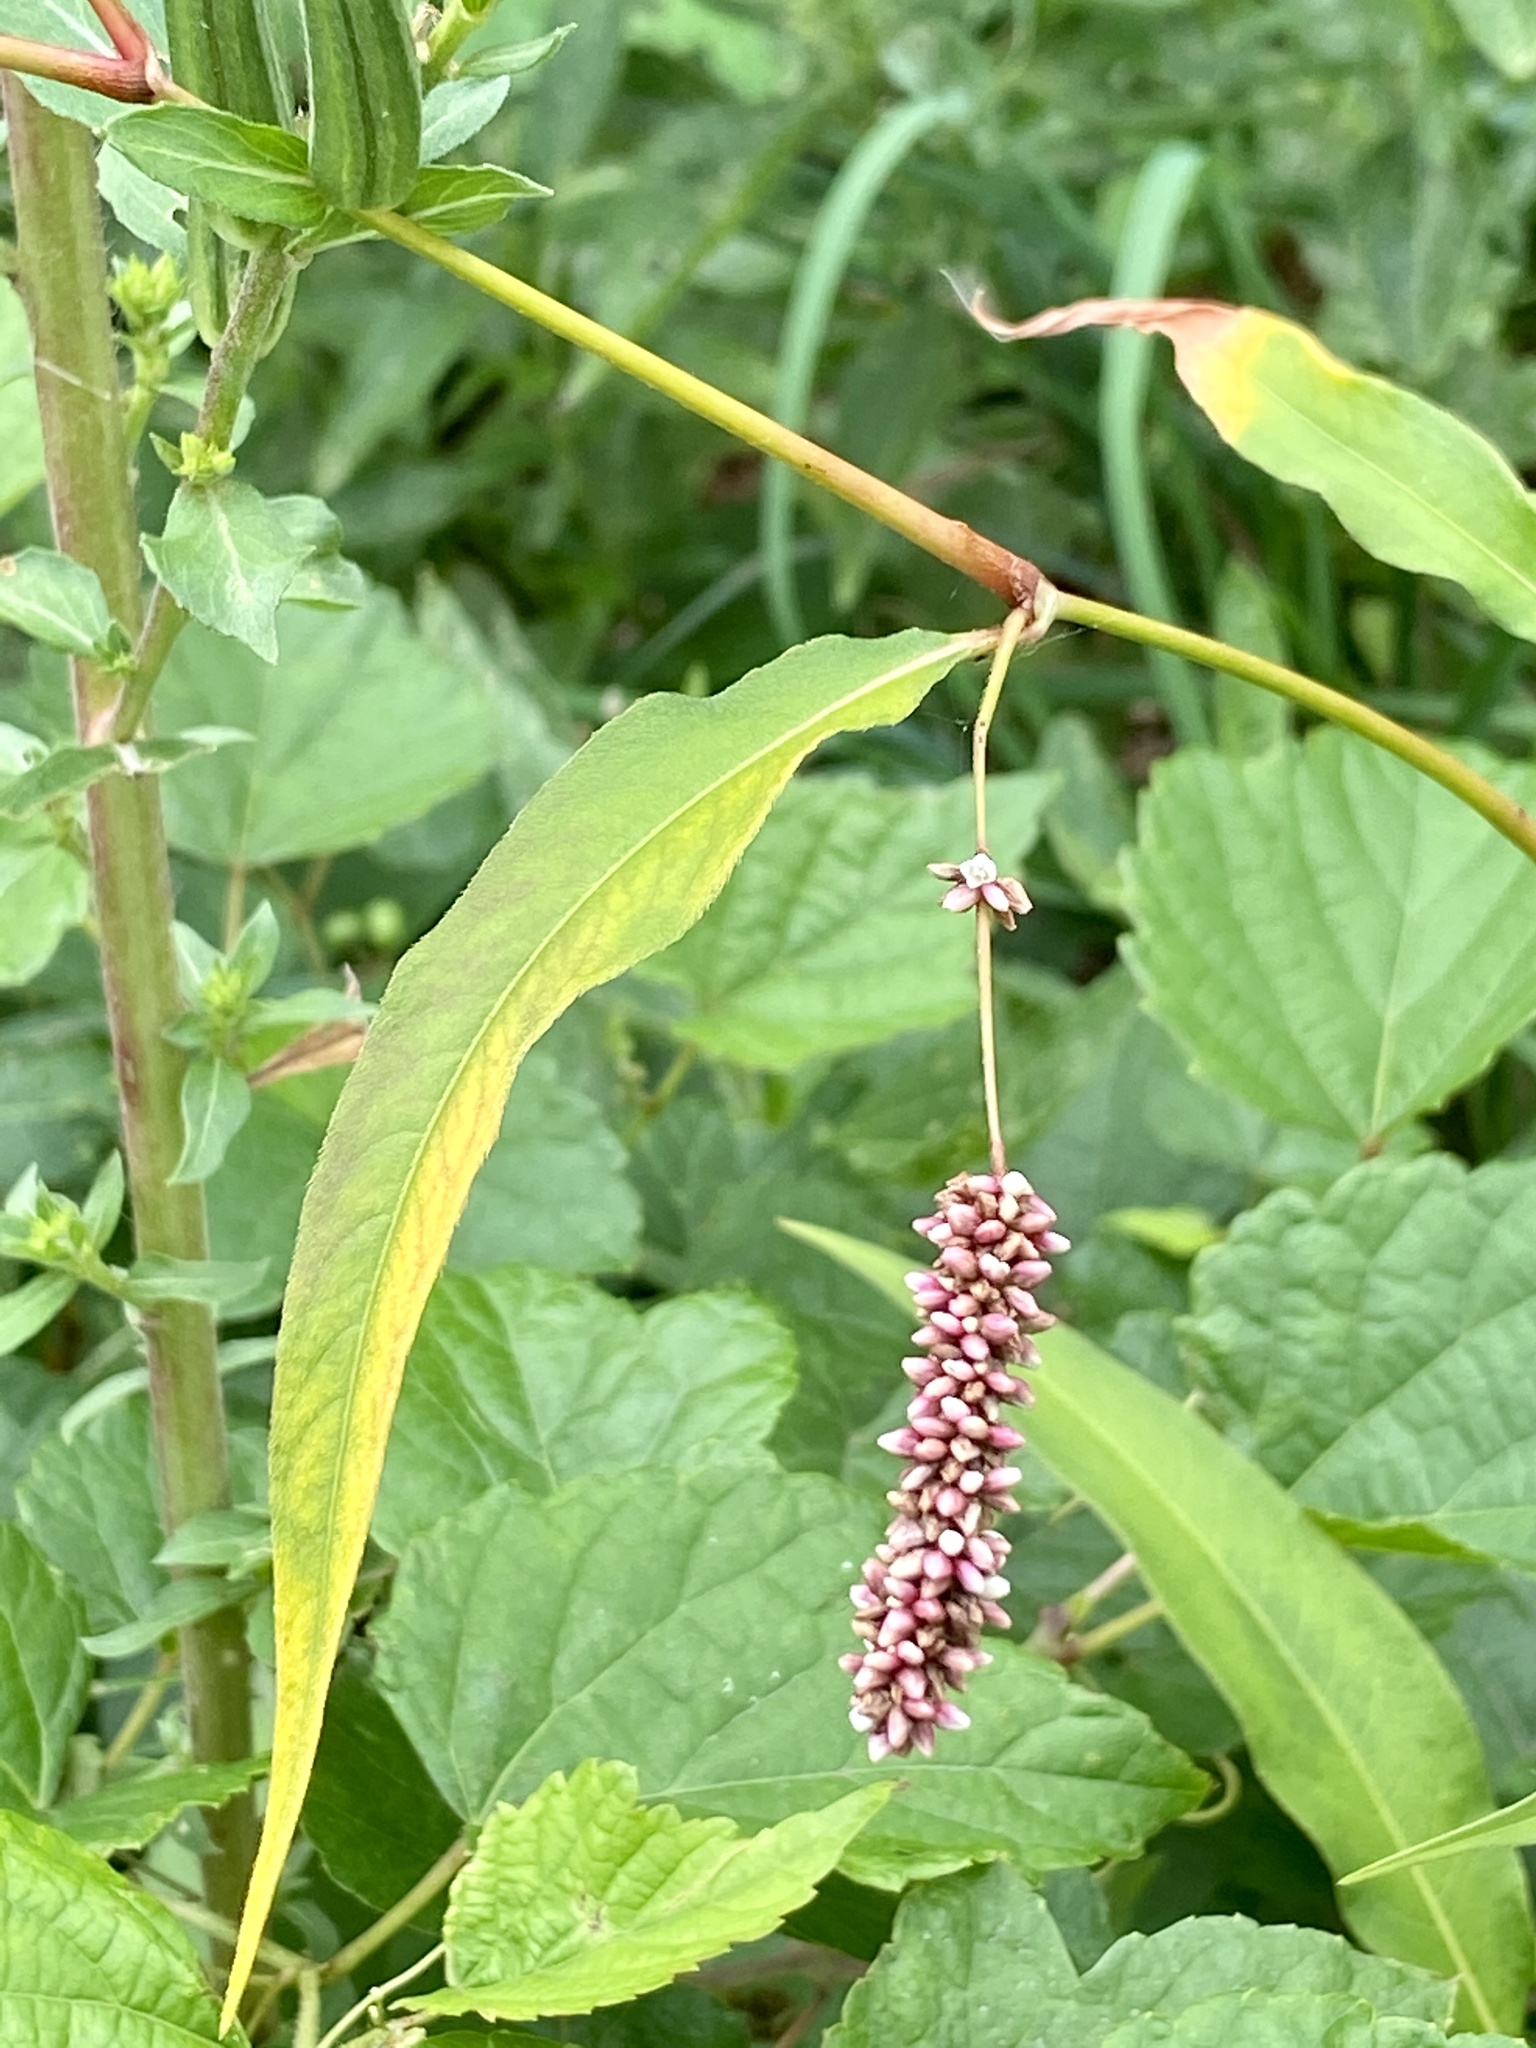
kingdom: Plantae
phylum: Tracheophyta
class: Magnoliopsida
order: Caryophyllales
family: Polygonaceae
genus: Persicaria
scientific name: Persicaria extremiorientalis
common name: Far-eastern smartweed
